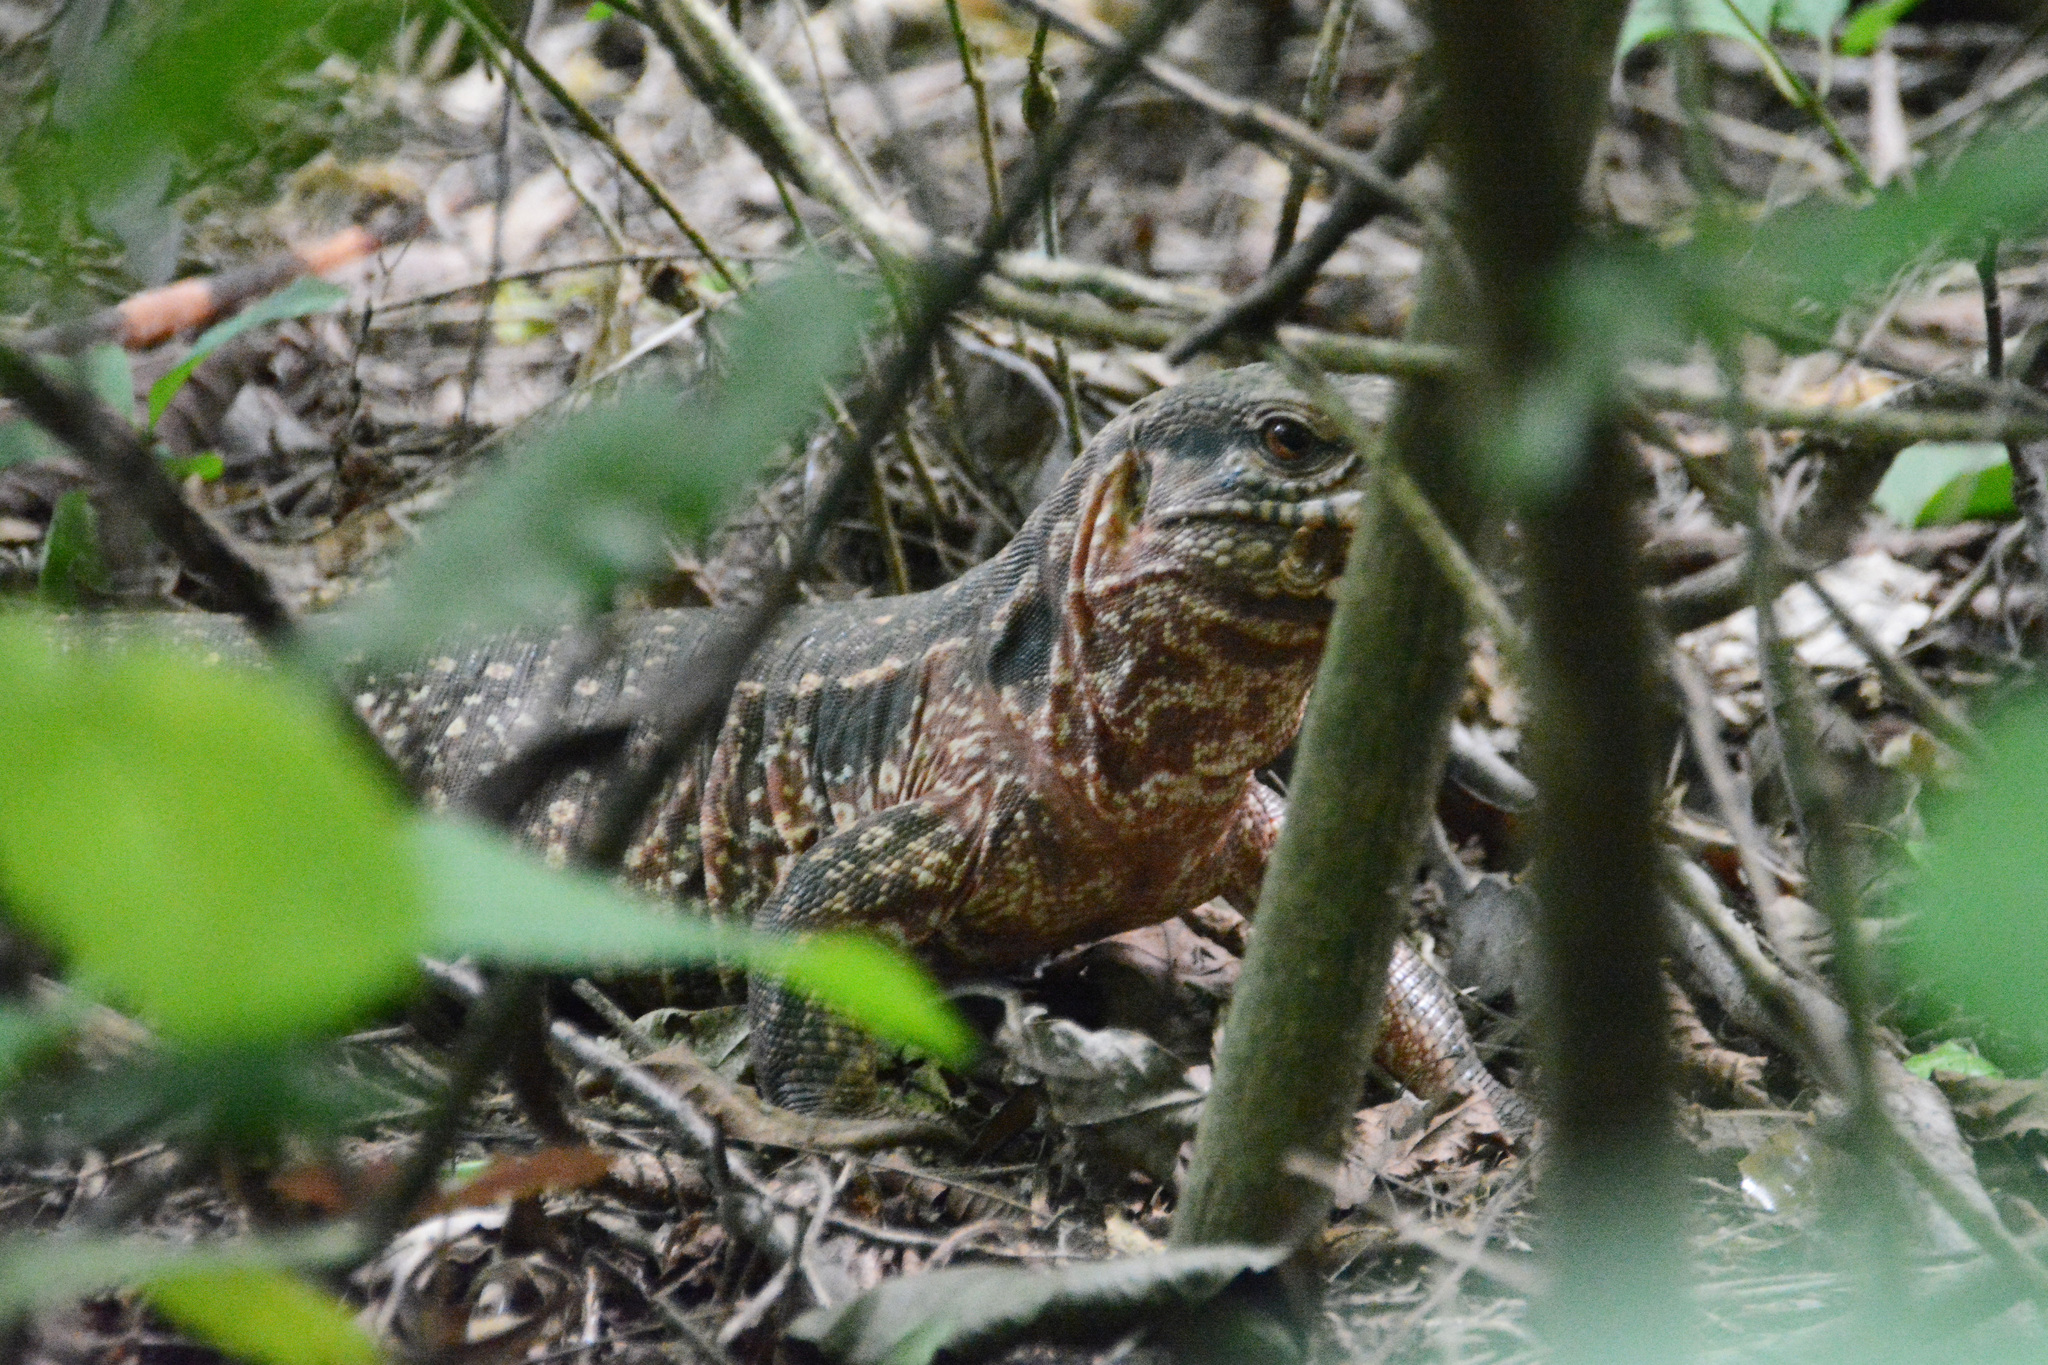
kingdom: Animalia
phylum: Chordata
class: Squamata
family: Teiidae
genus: Salvator
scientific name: Salvator rufescens
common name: Red tegu
